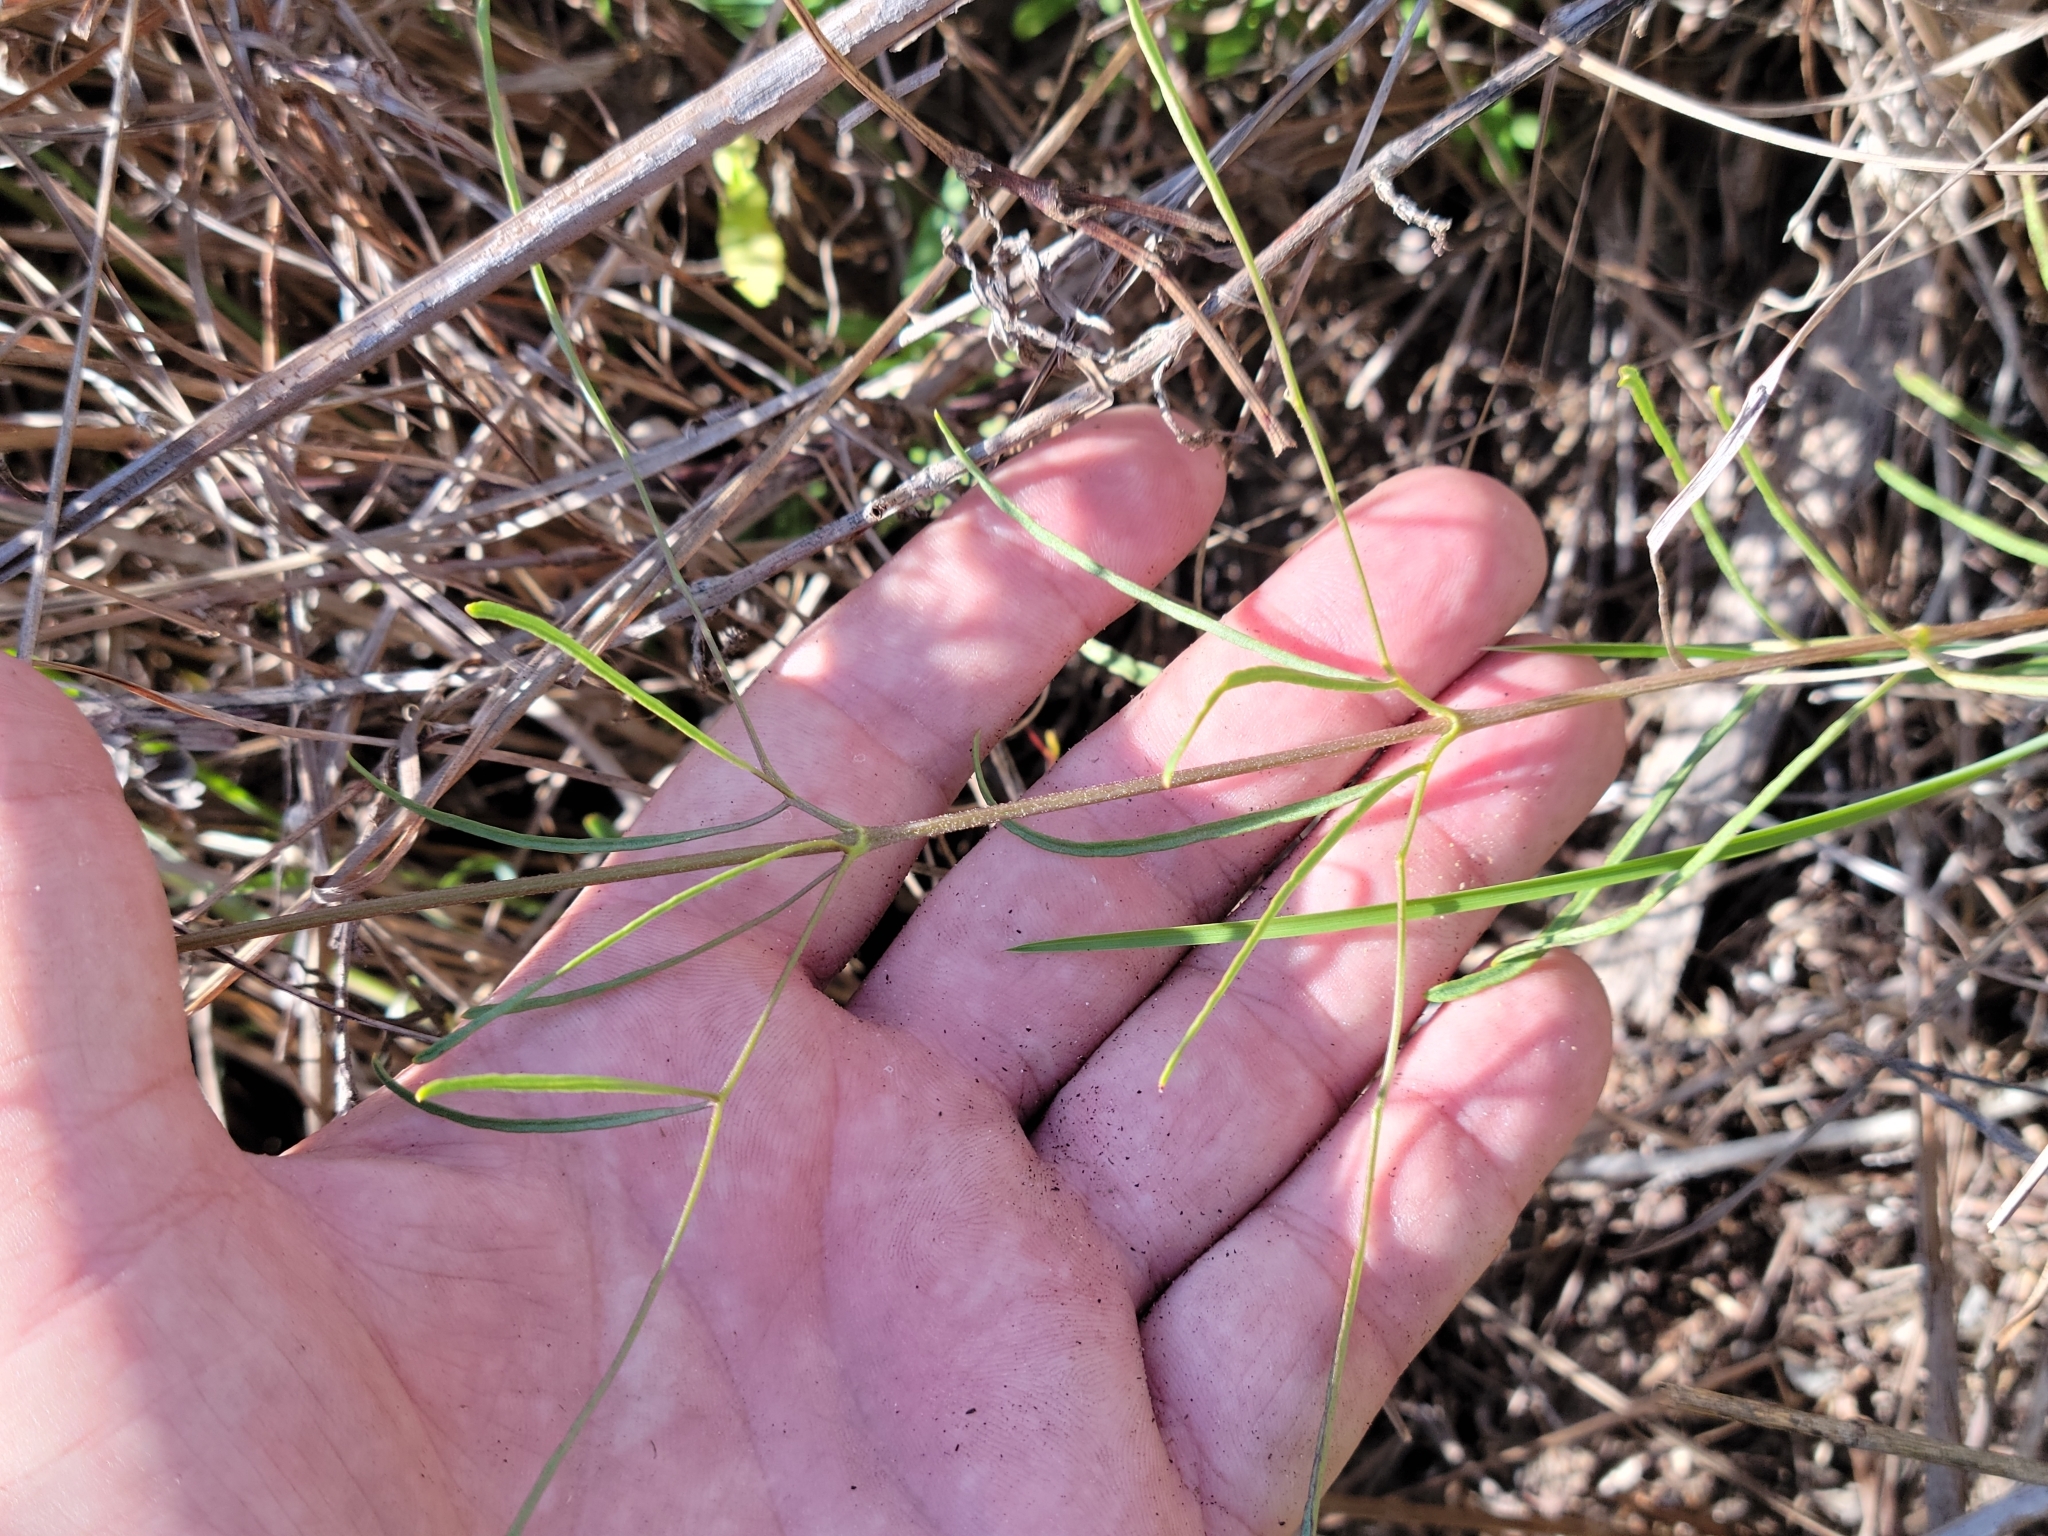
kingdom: Plantae
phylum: Tracheophyta
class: Magnoliopsida
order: Ranunculales
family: Ranunculaceae
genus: Clematis
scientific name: Clematis baldwinii
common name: Pine-hyacinth
